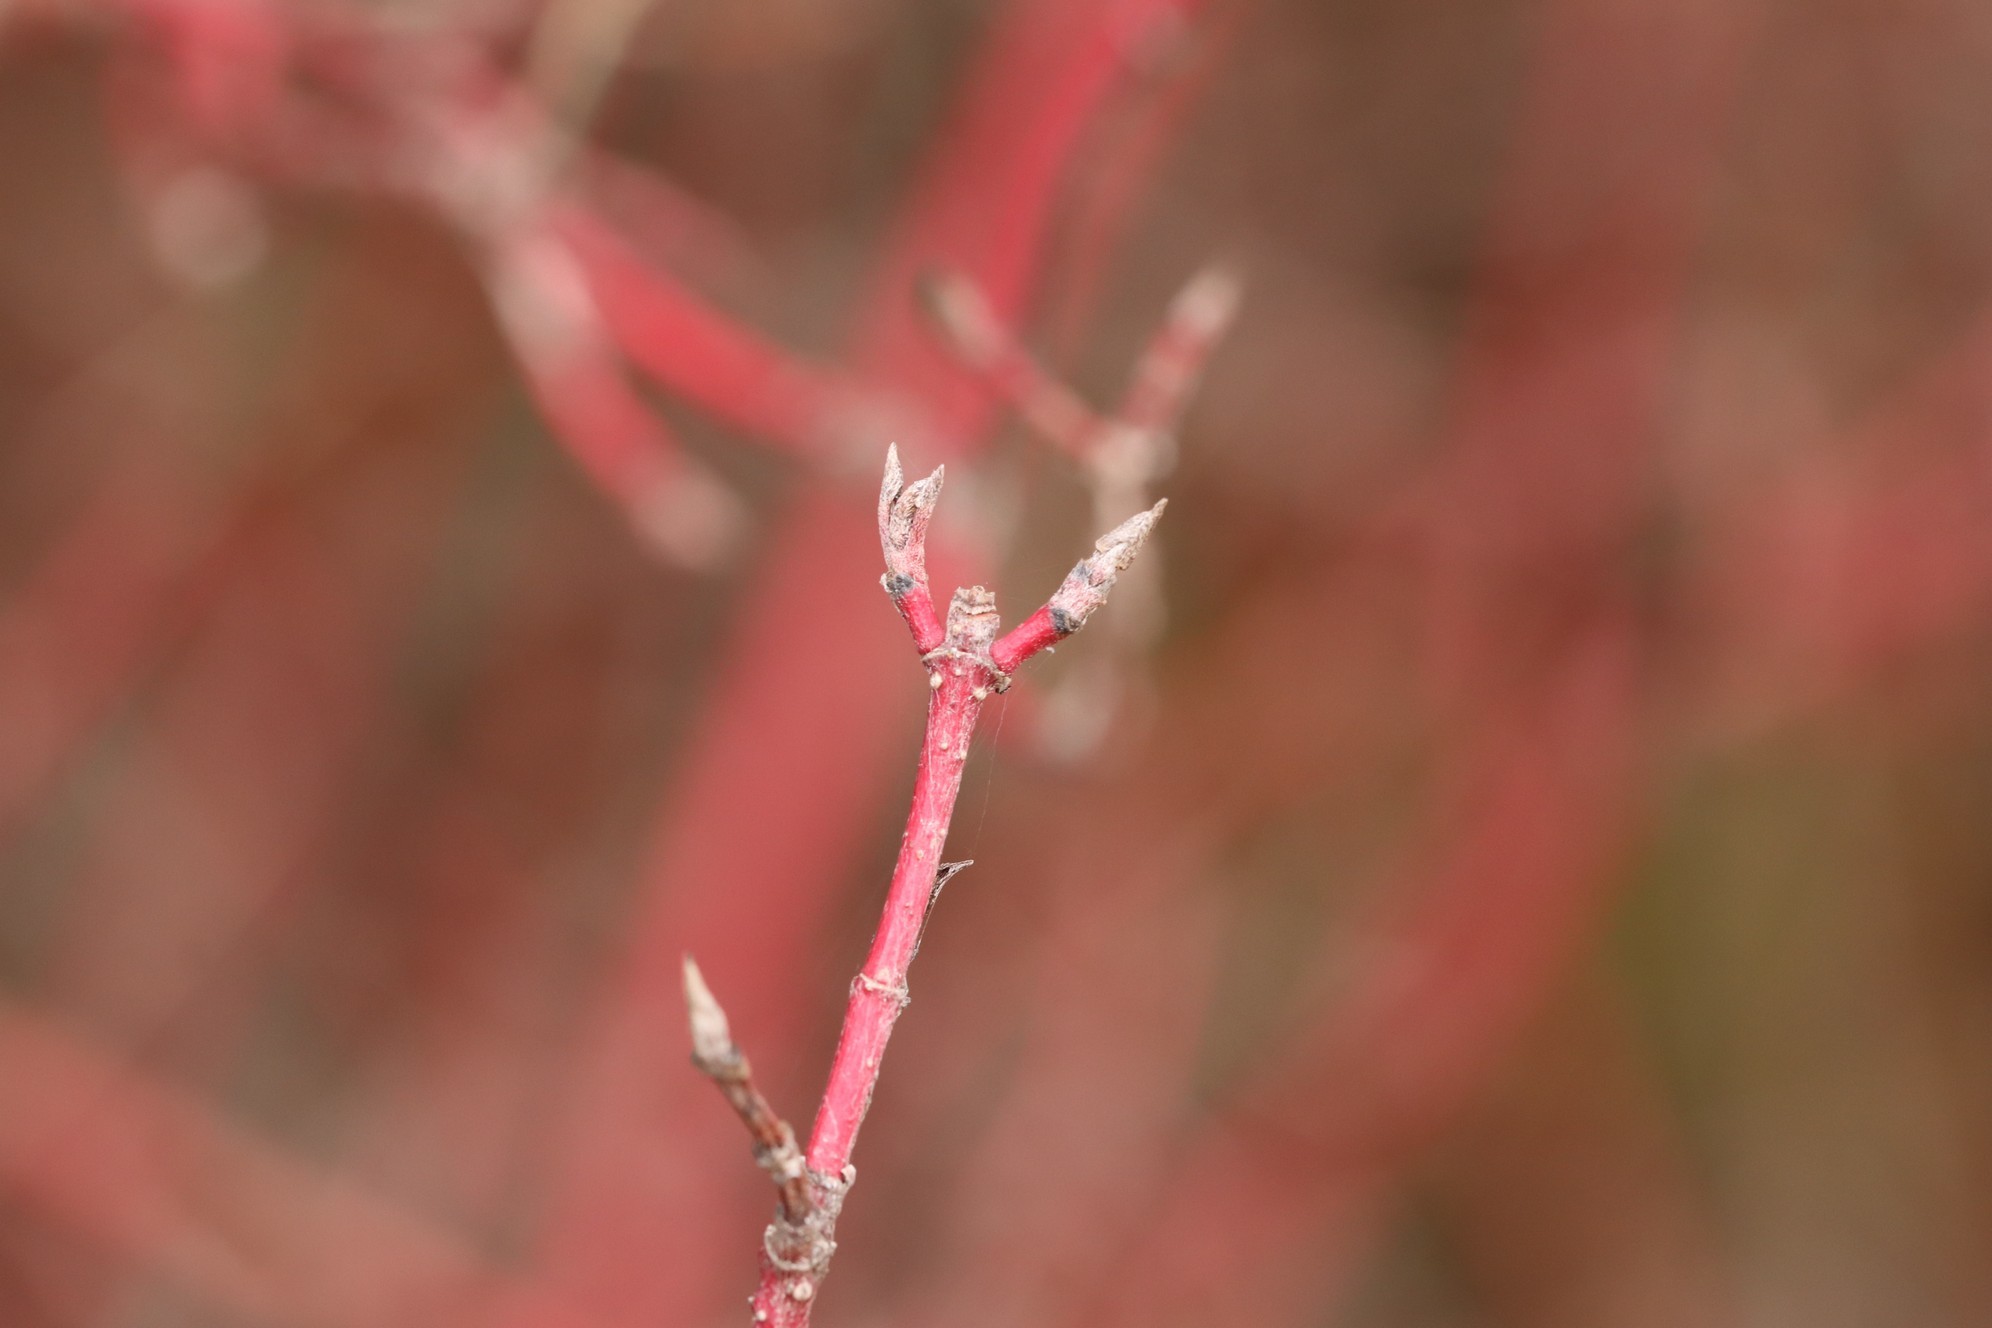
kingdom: Plantae
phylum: Tracheophyta
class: Magnoliopsida
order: Cornales
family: Cornaceae
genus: Cornus
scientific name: Cornus alba
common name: White dogwood
